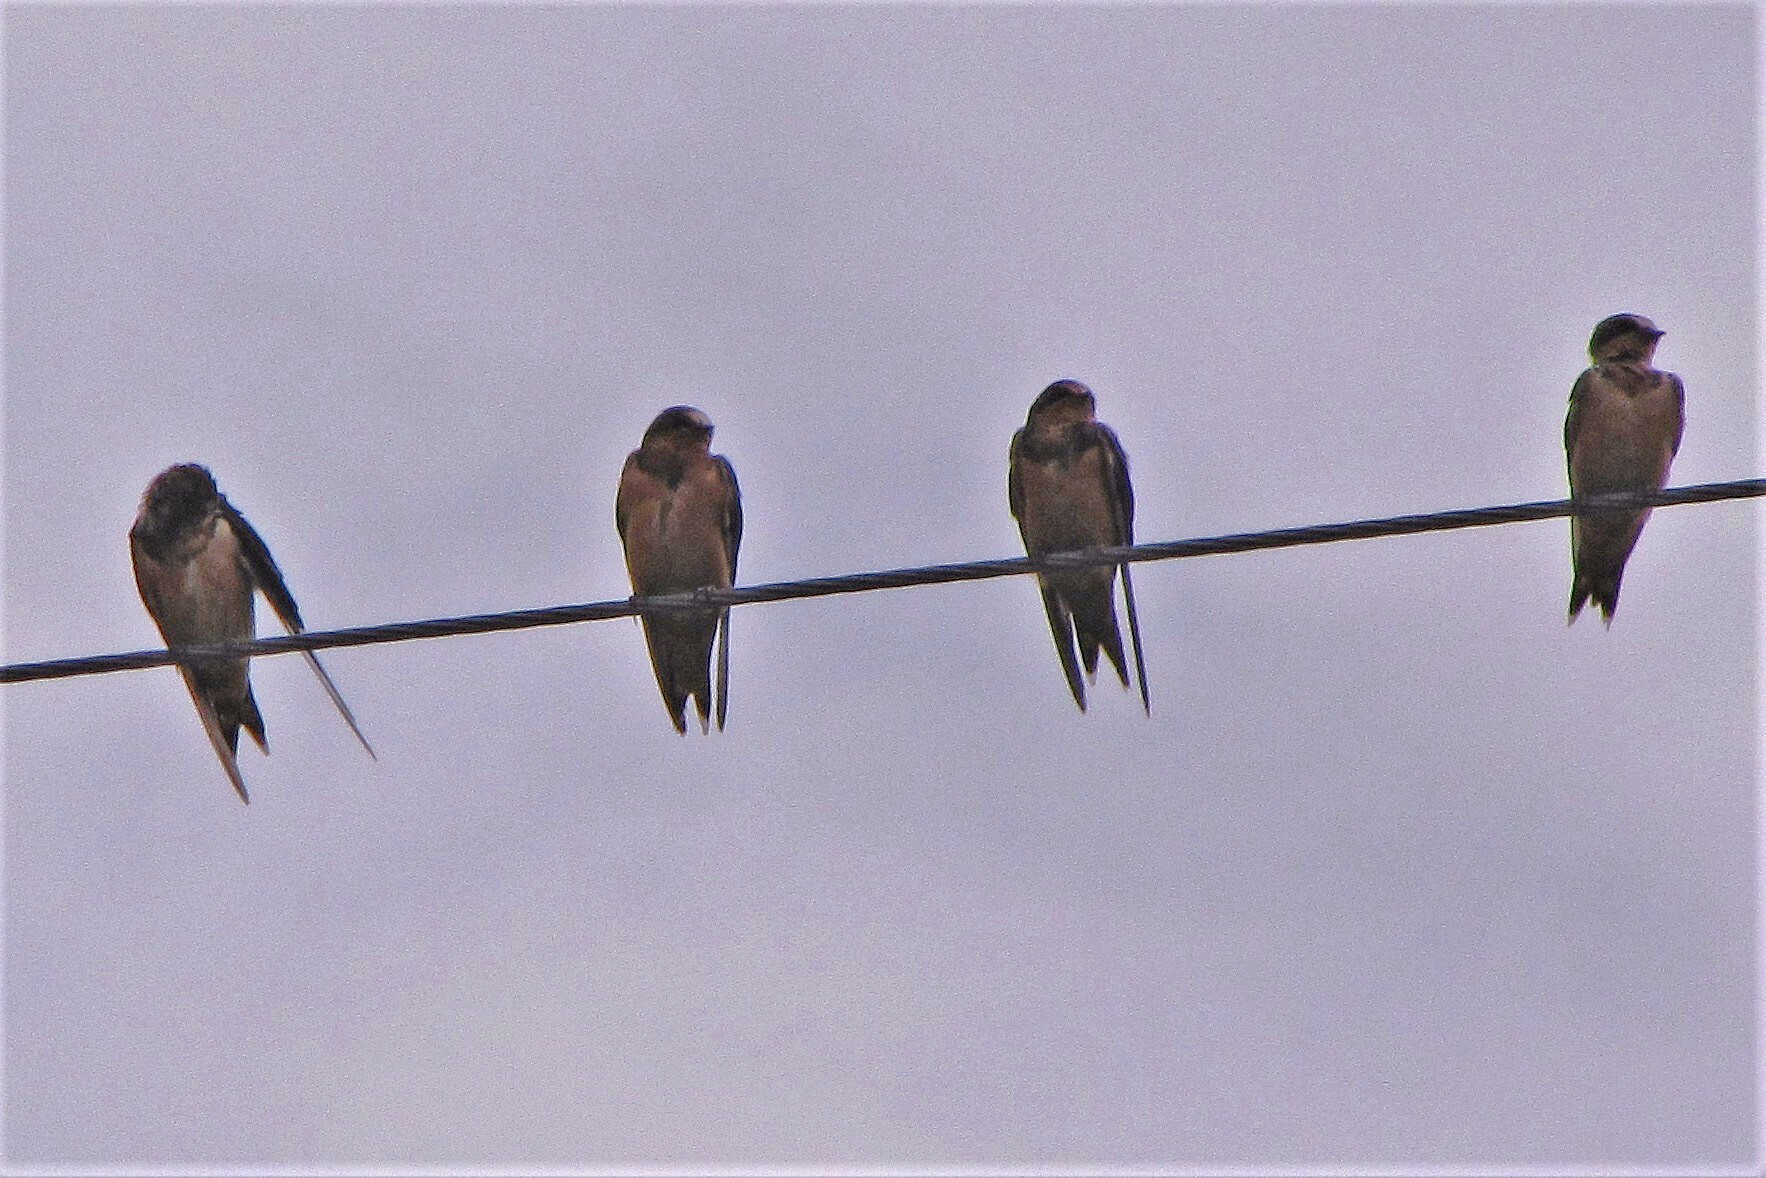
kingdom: Animalia
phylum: Chordata
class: Aves
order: Passeriformes
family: Hirundinidae
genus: Hirundo
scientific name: Hirundo rustica
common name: Barn swallow
